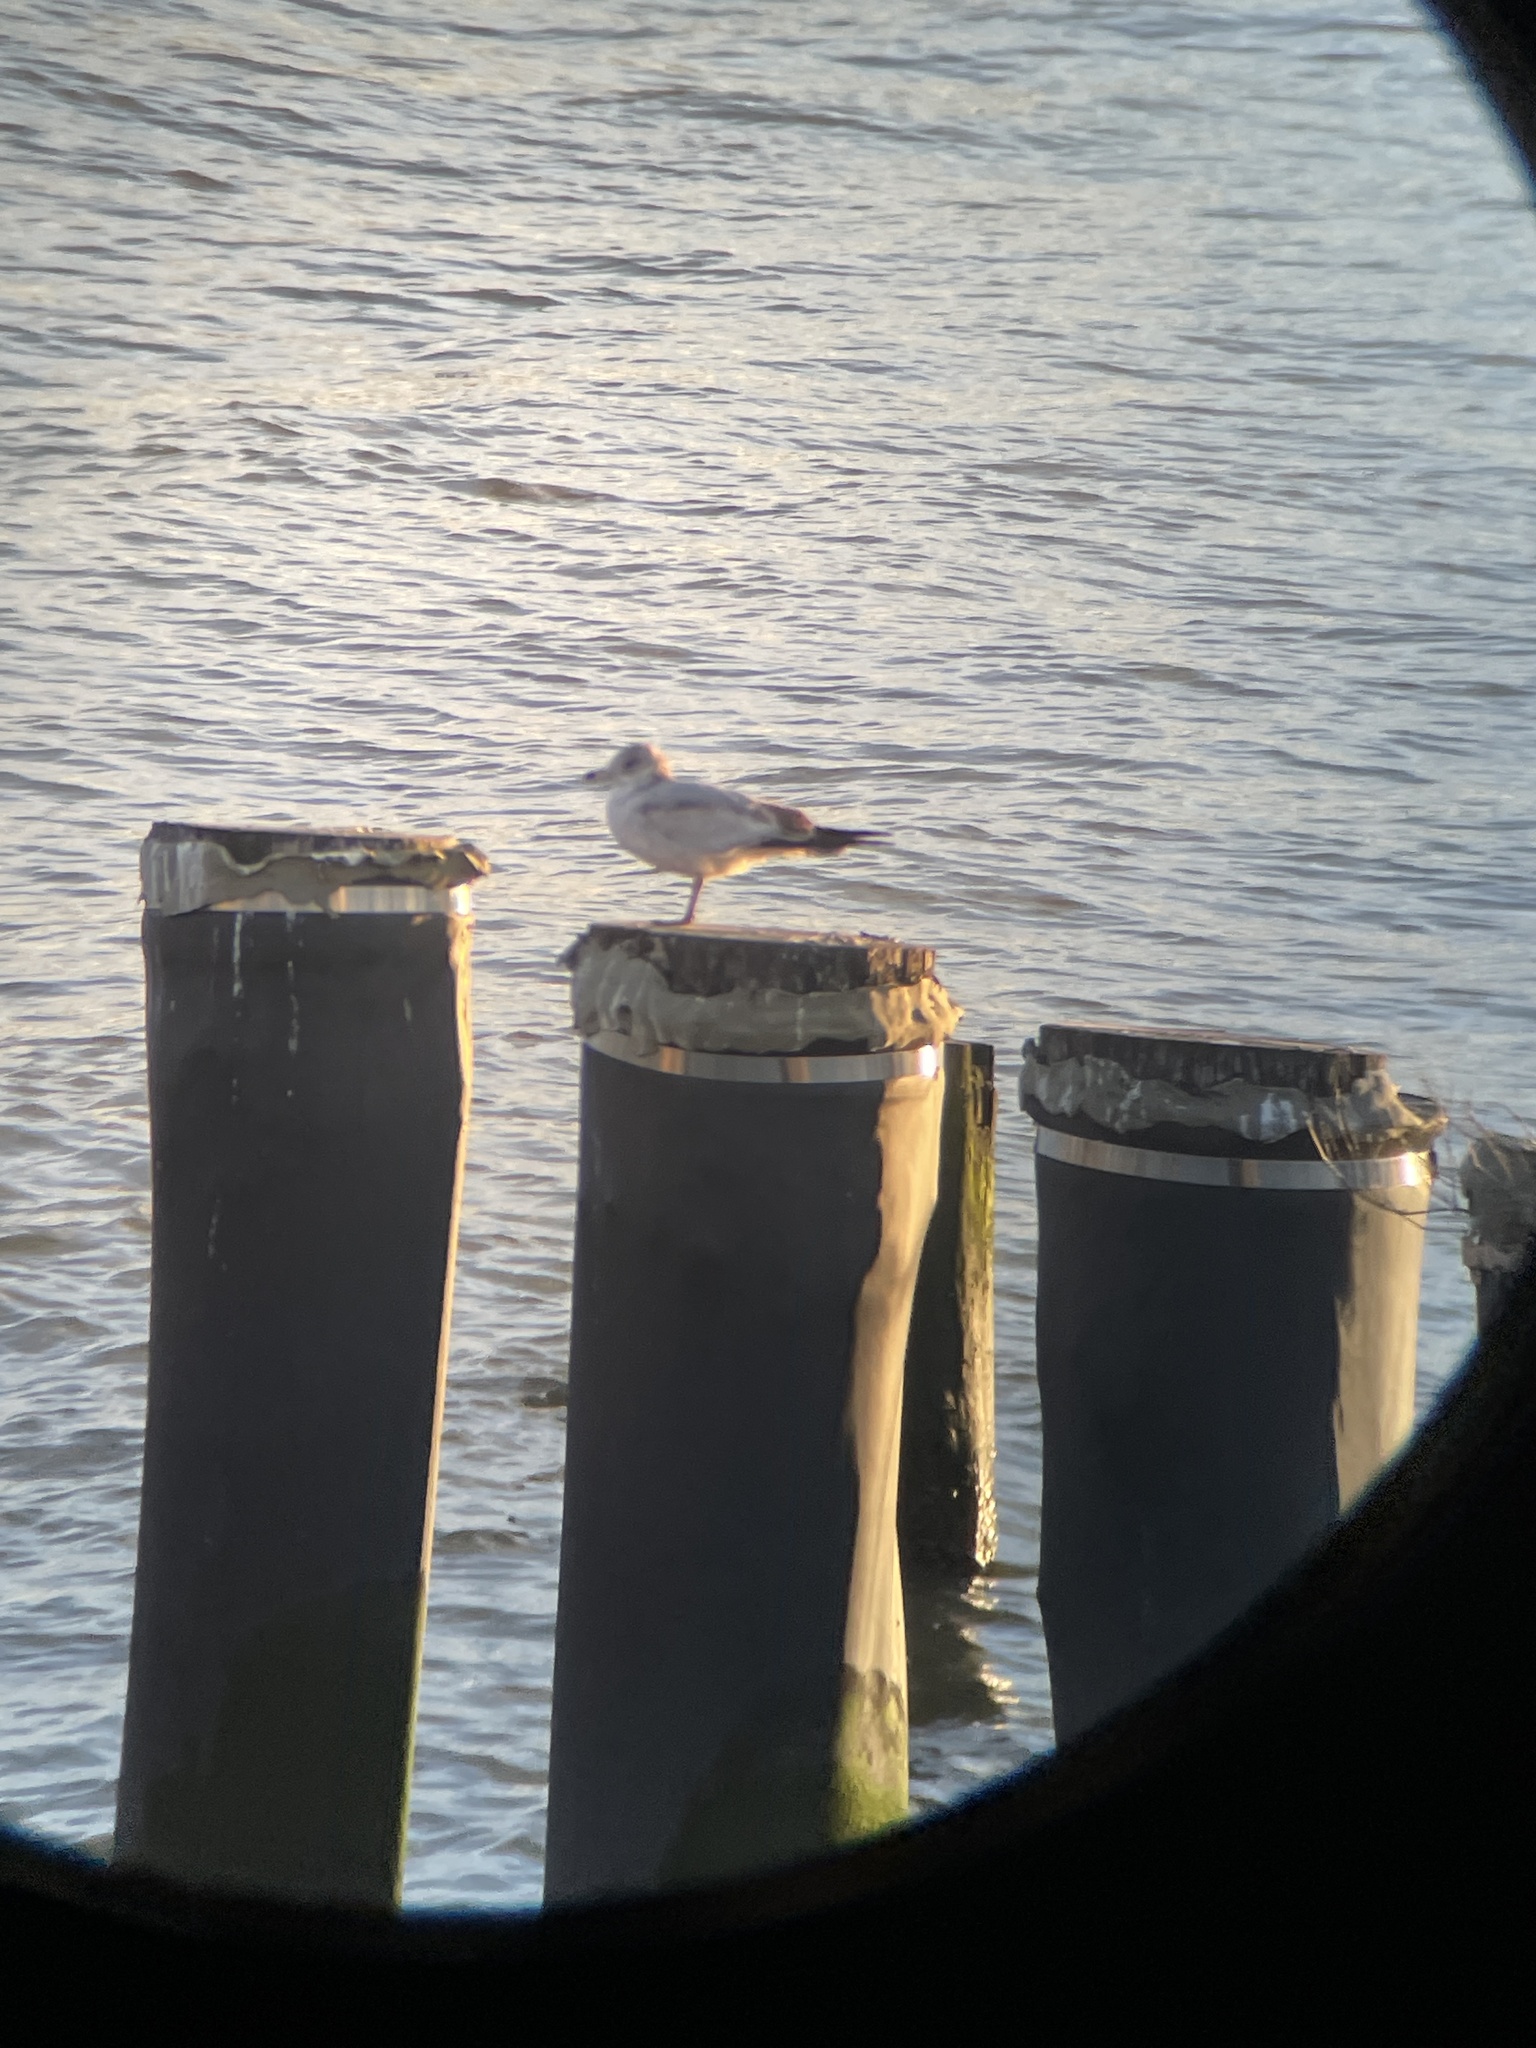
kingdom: Animalia
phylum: Chordata
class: Aves
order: Charadriiformes
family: Laridae
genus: Larus
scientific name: Larus delawarensis
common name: Ring-billed gull
